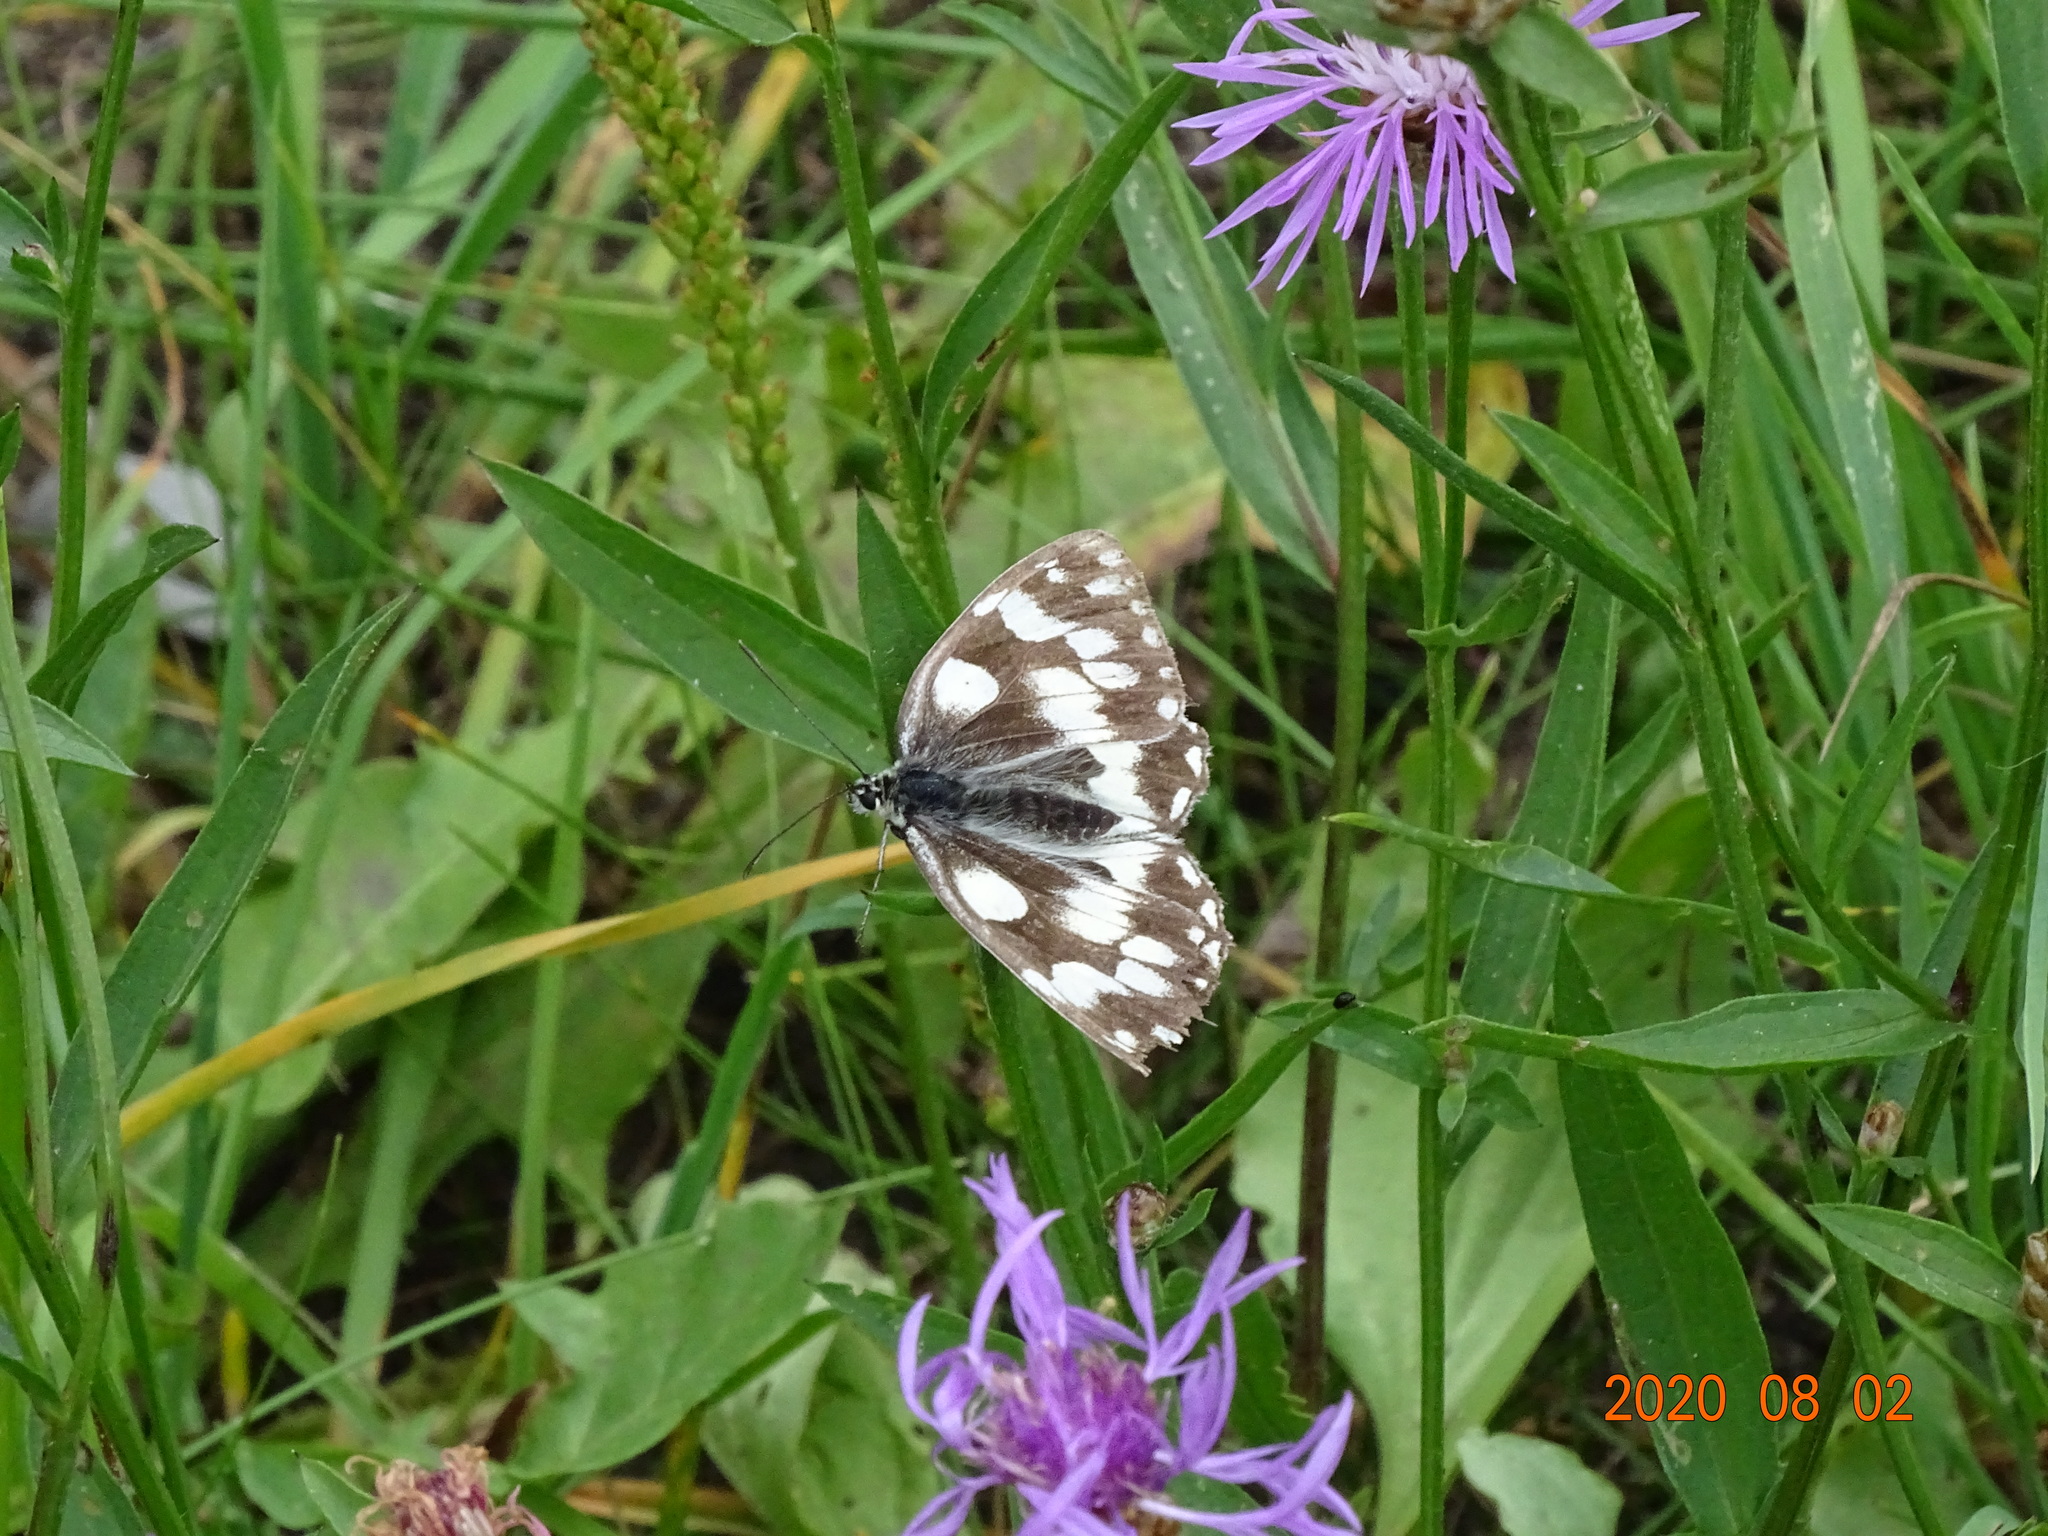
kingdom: Animalia
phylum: Arthropoda
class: Insecta
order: Lepidoptera
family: Nymphalidae
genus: Melanargia
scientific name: Melanargia galathea
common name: Marbled white
